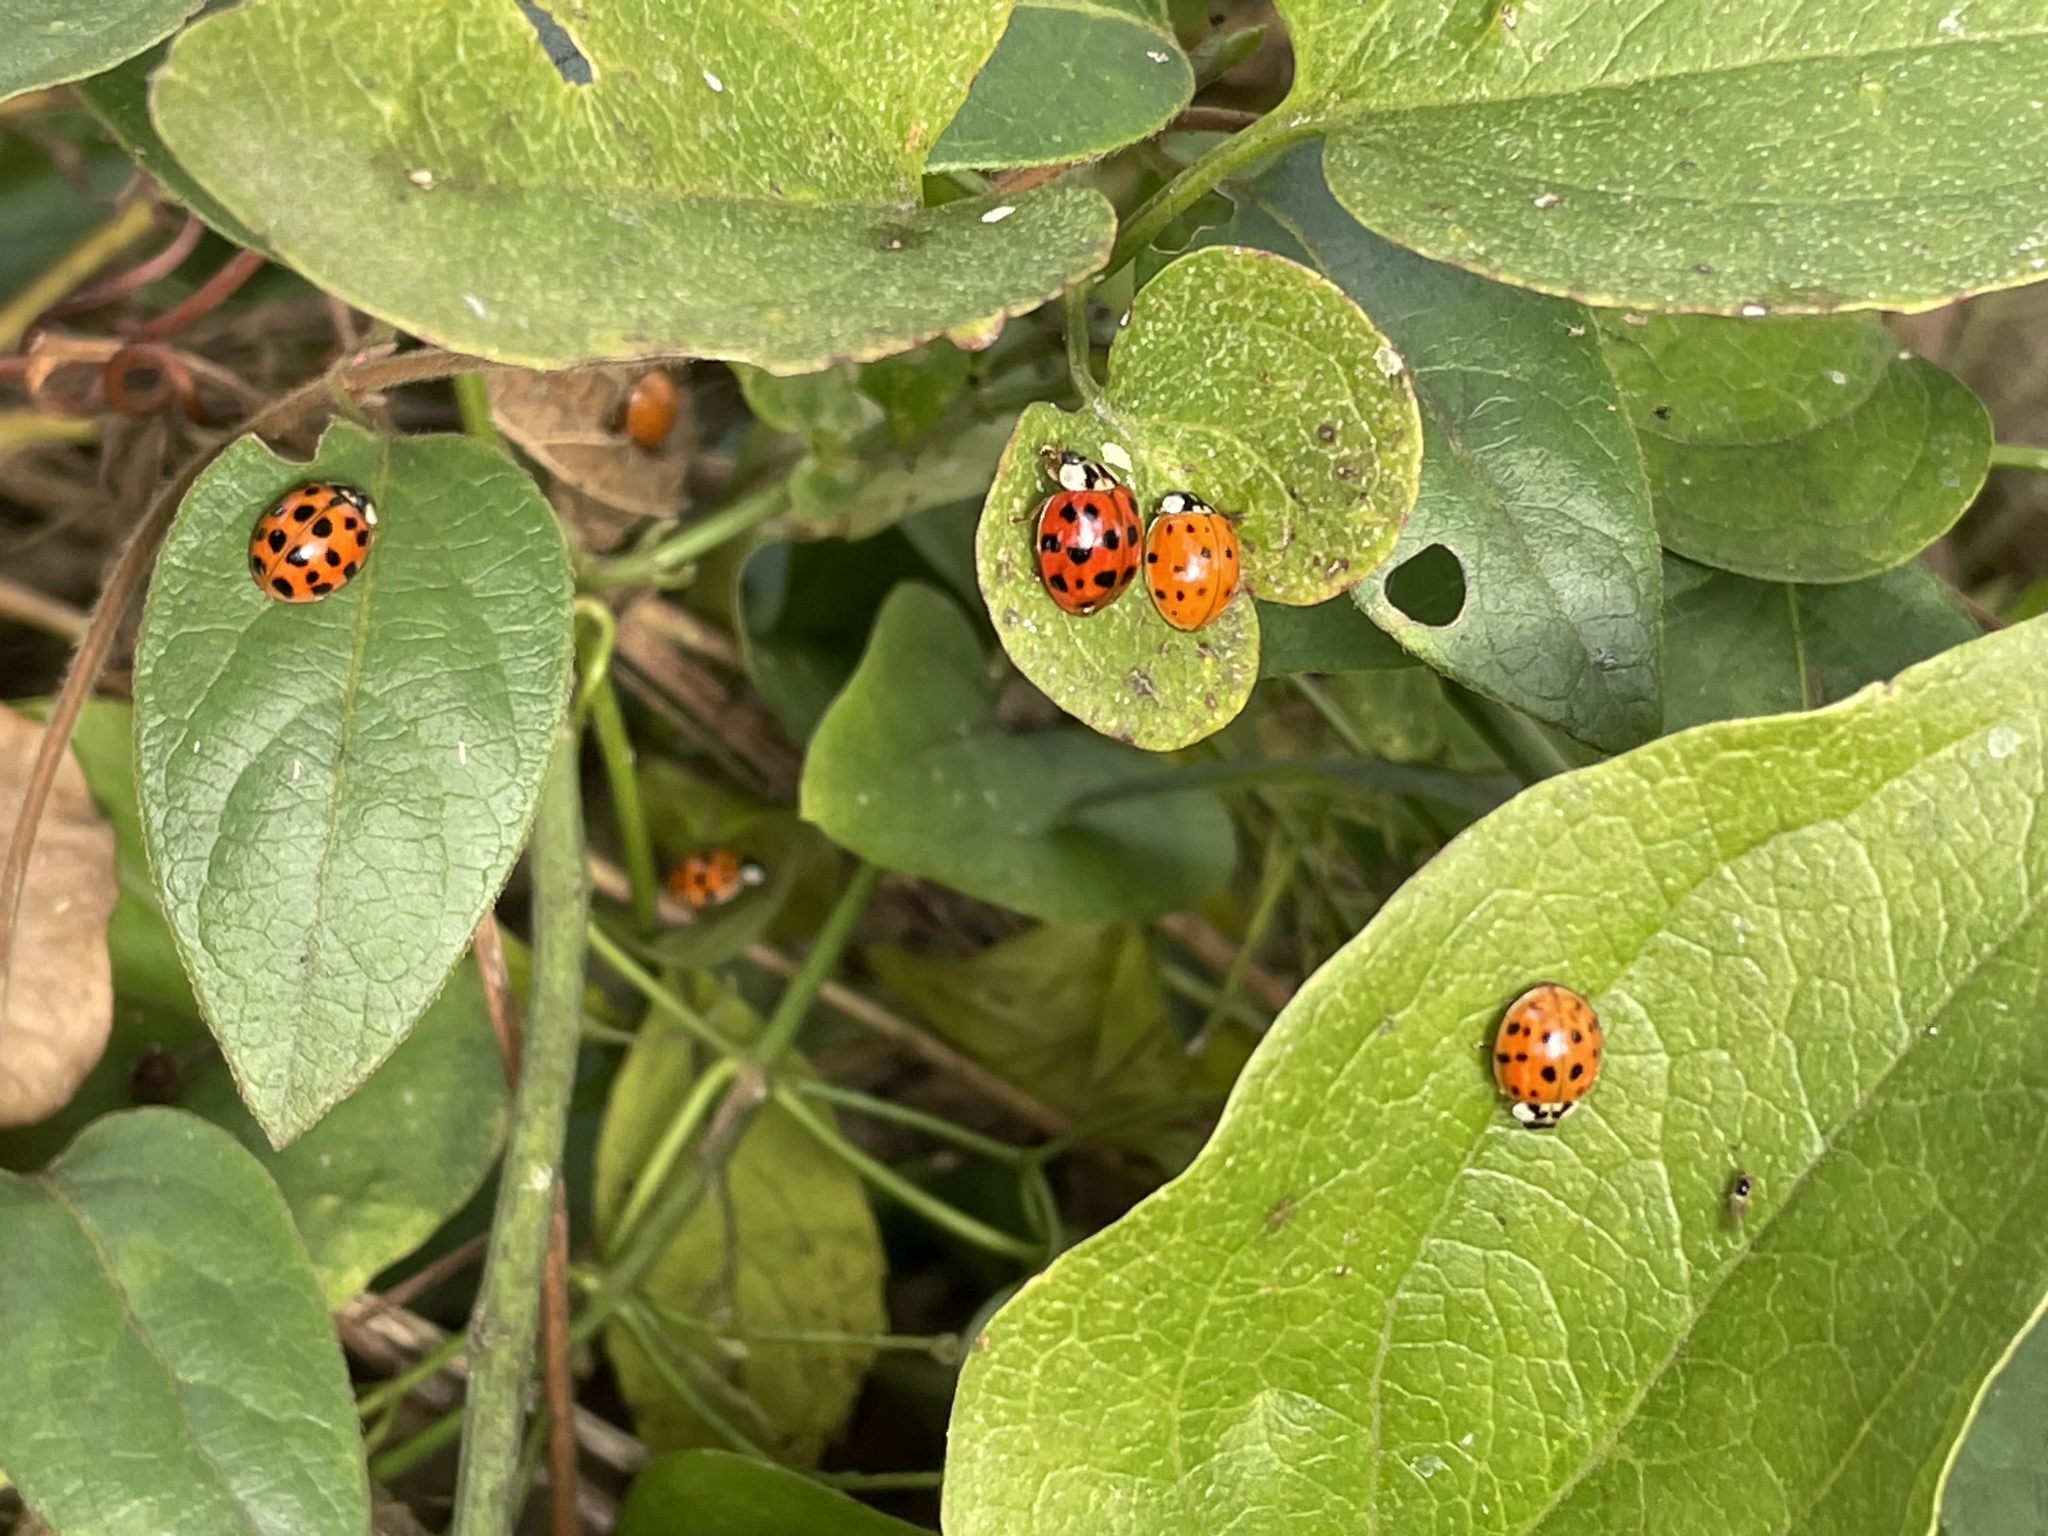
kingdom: Animalia
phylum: Arthropoda
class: Insecta
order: Coleoptera
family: Coccinellidae
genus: Harmonia
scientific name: Harmonia axyridis
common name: Harlequin ladybird
